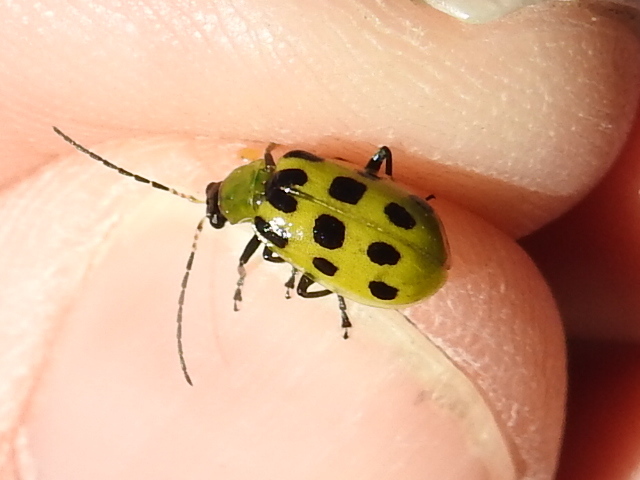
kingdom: Animalia
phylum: Arthropoda
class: Insecta
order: Coleoptera
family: Chrysomelidae
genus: Diabrotica
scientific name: Diabrotica undecimpunctata
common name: Spotted cucumber beetle
